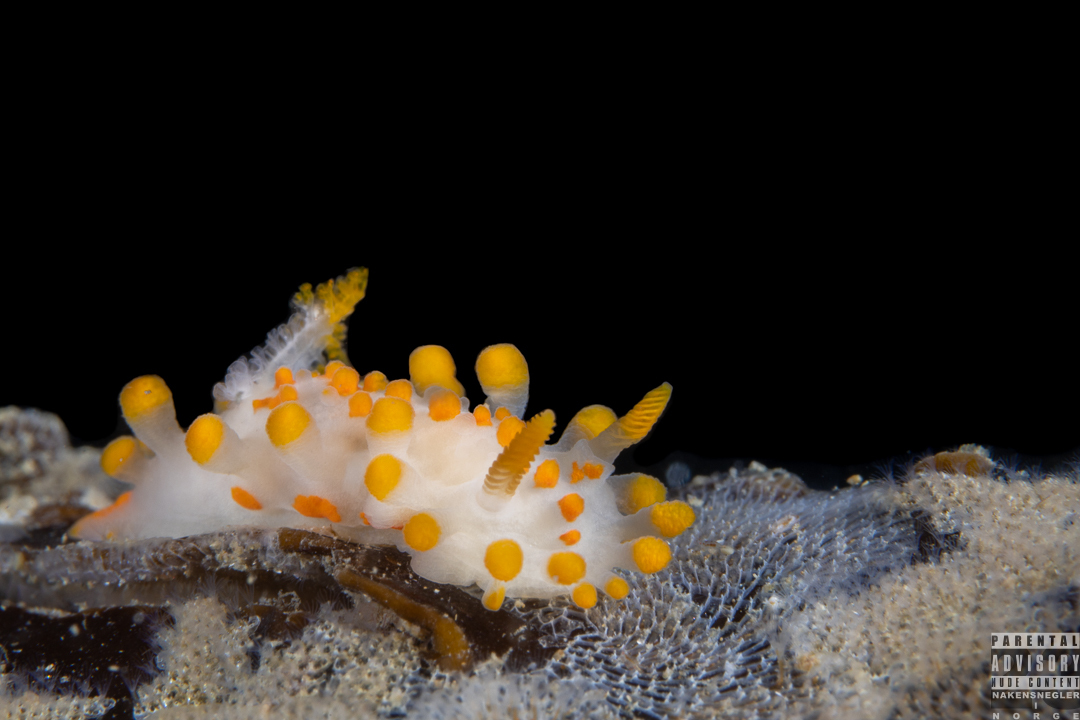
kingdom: Animalia
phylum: Mollusca
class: Gastropoda
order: Nudibranchia
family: Polyceridae
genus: Limacia
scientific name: Limacia clavigera
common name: Orange-clubbed sea slug
